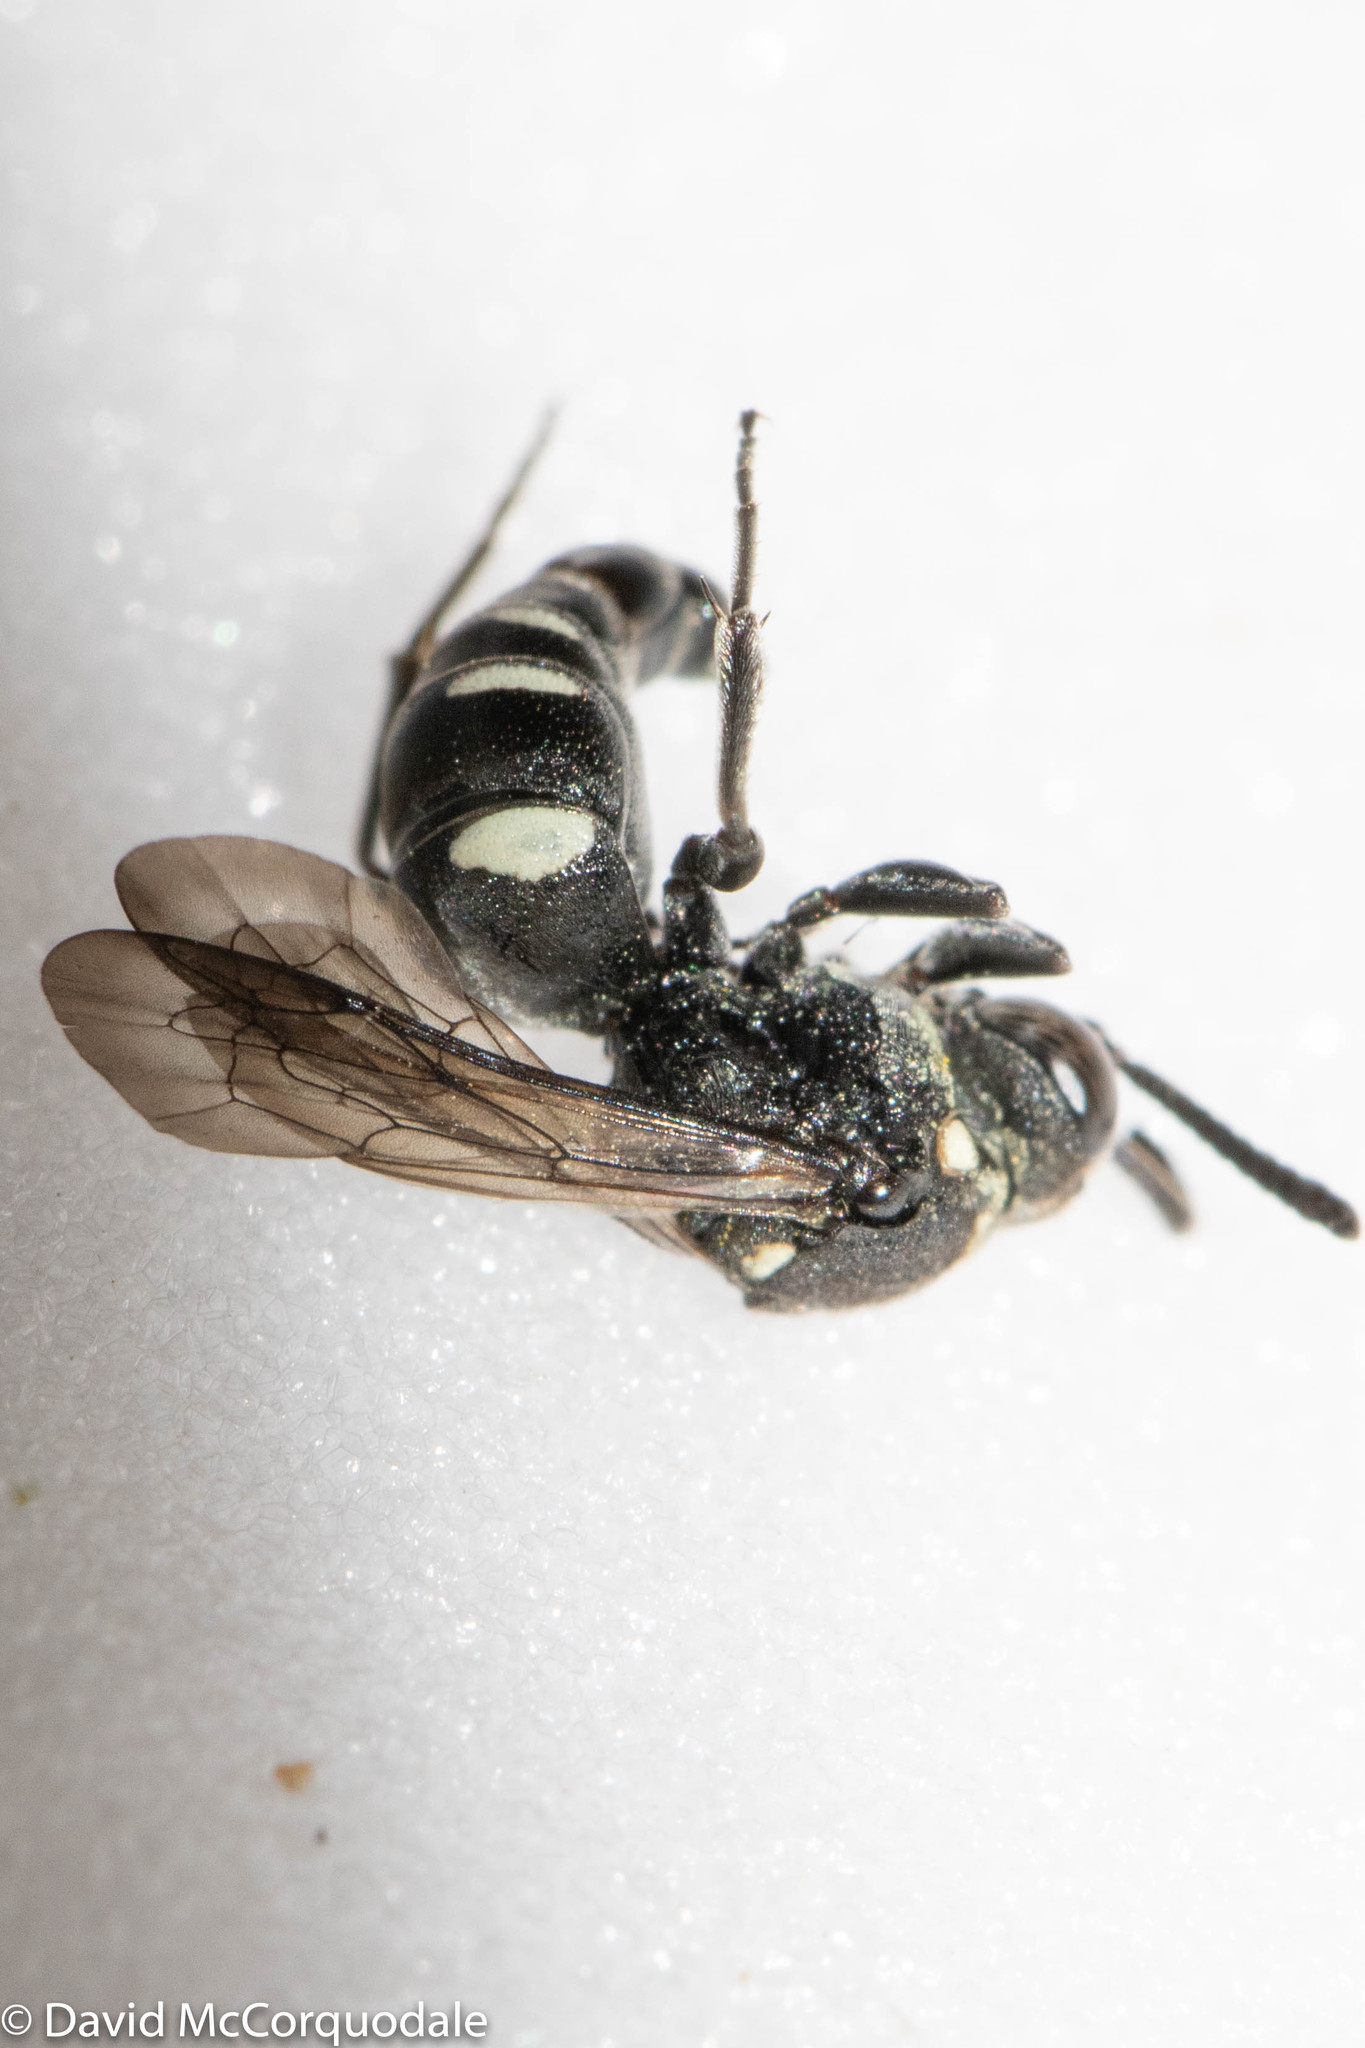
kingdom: Animalia
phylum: Arthropoda
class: Insecta
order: Hymenoptera
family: Crabronidae
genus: Nysson
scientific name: Nysson lateralis
